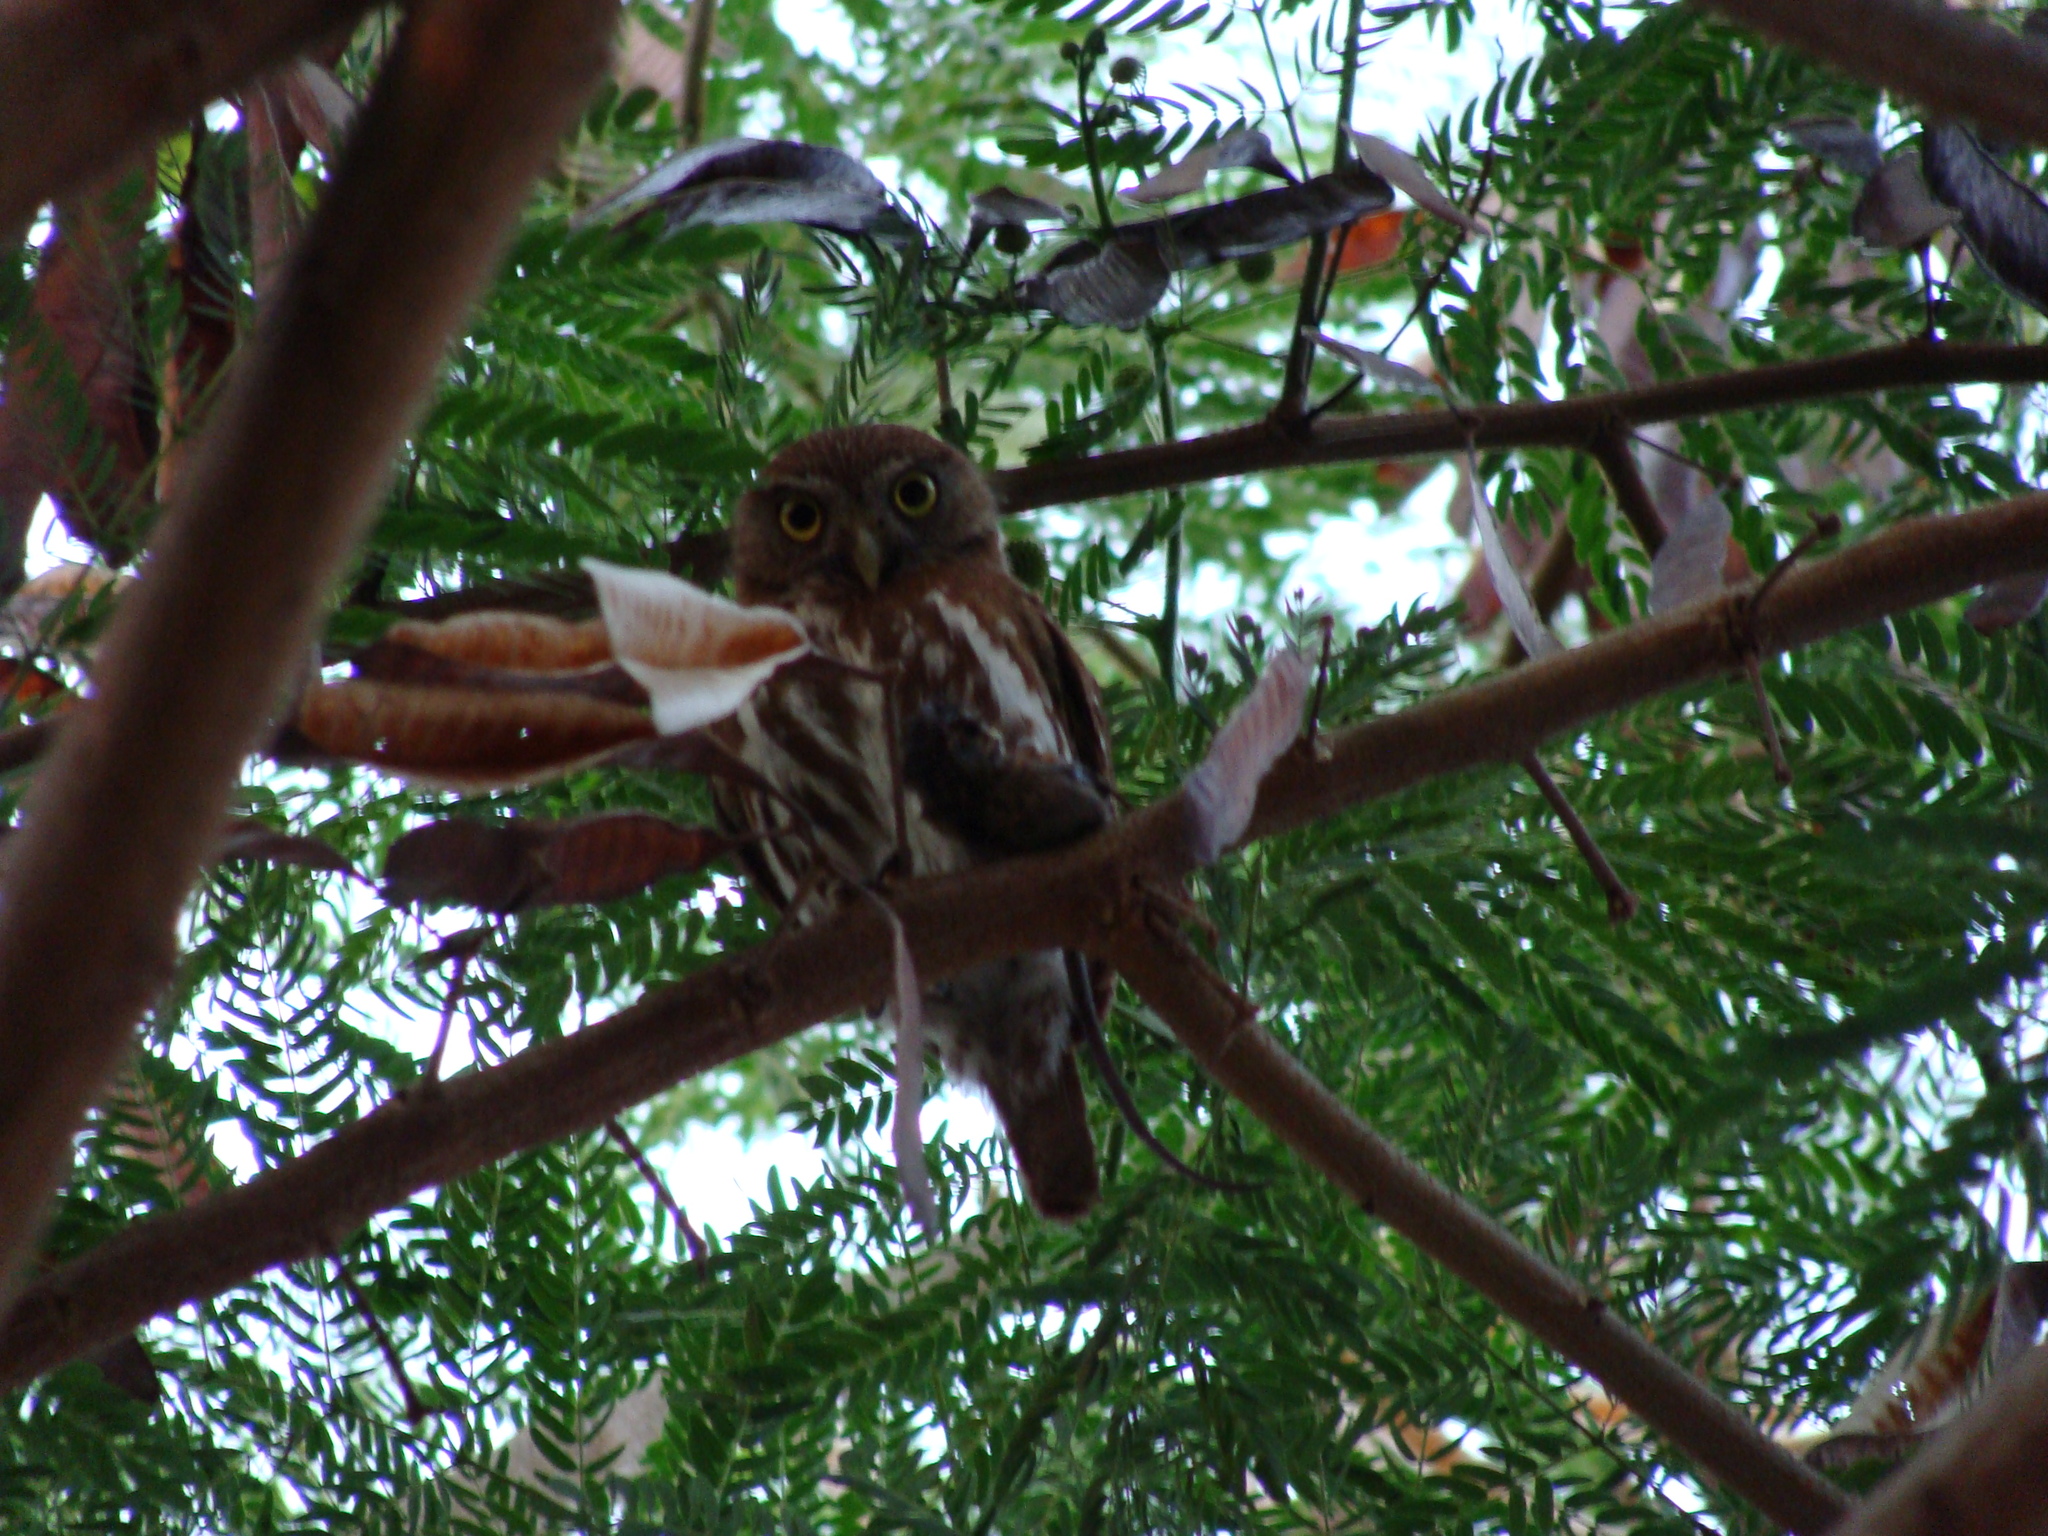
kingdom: Animalia
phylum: Chordata
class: Aves
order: Strigiformes
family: Strigidae
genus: Glaucidium
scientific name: Glaucidium brasilianum
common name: Ferruginous pygmy-owl
